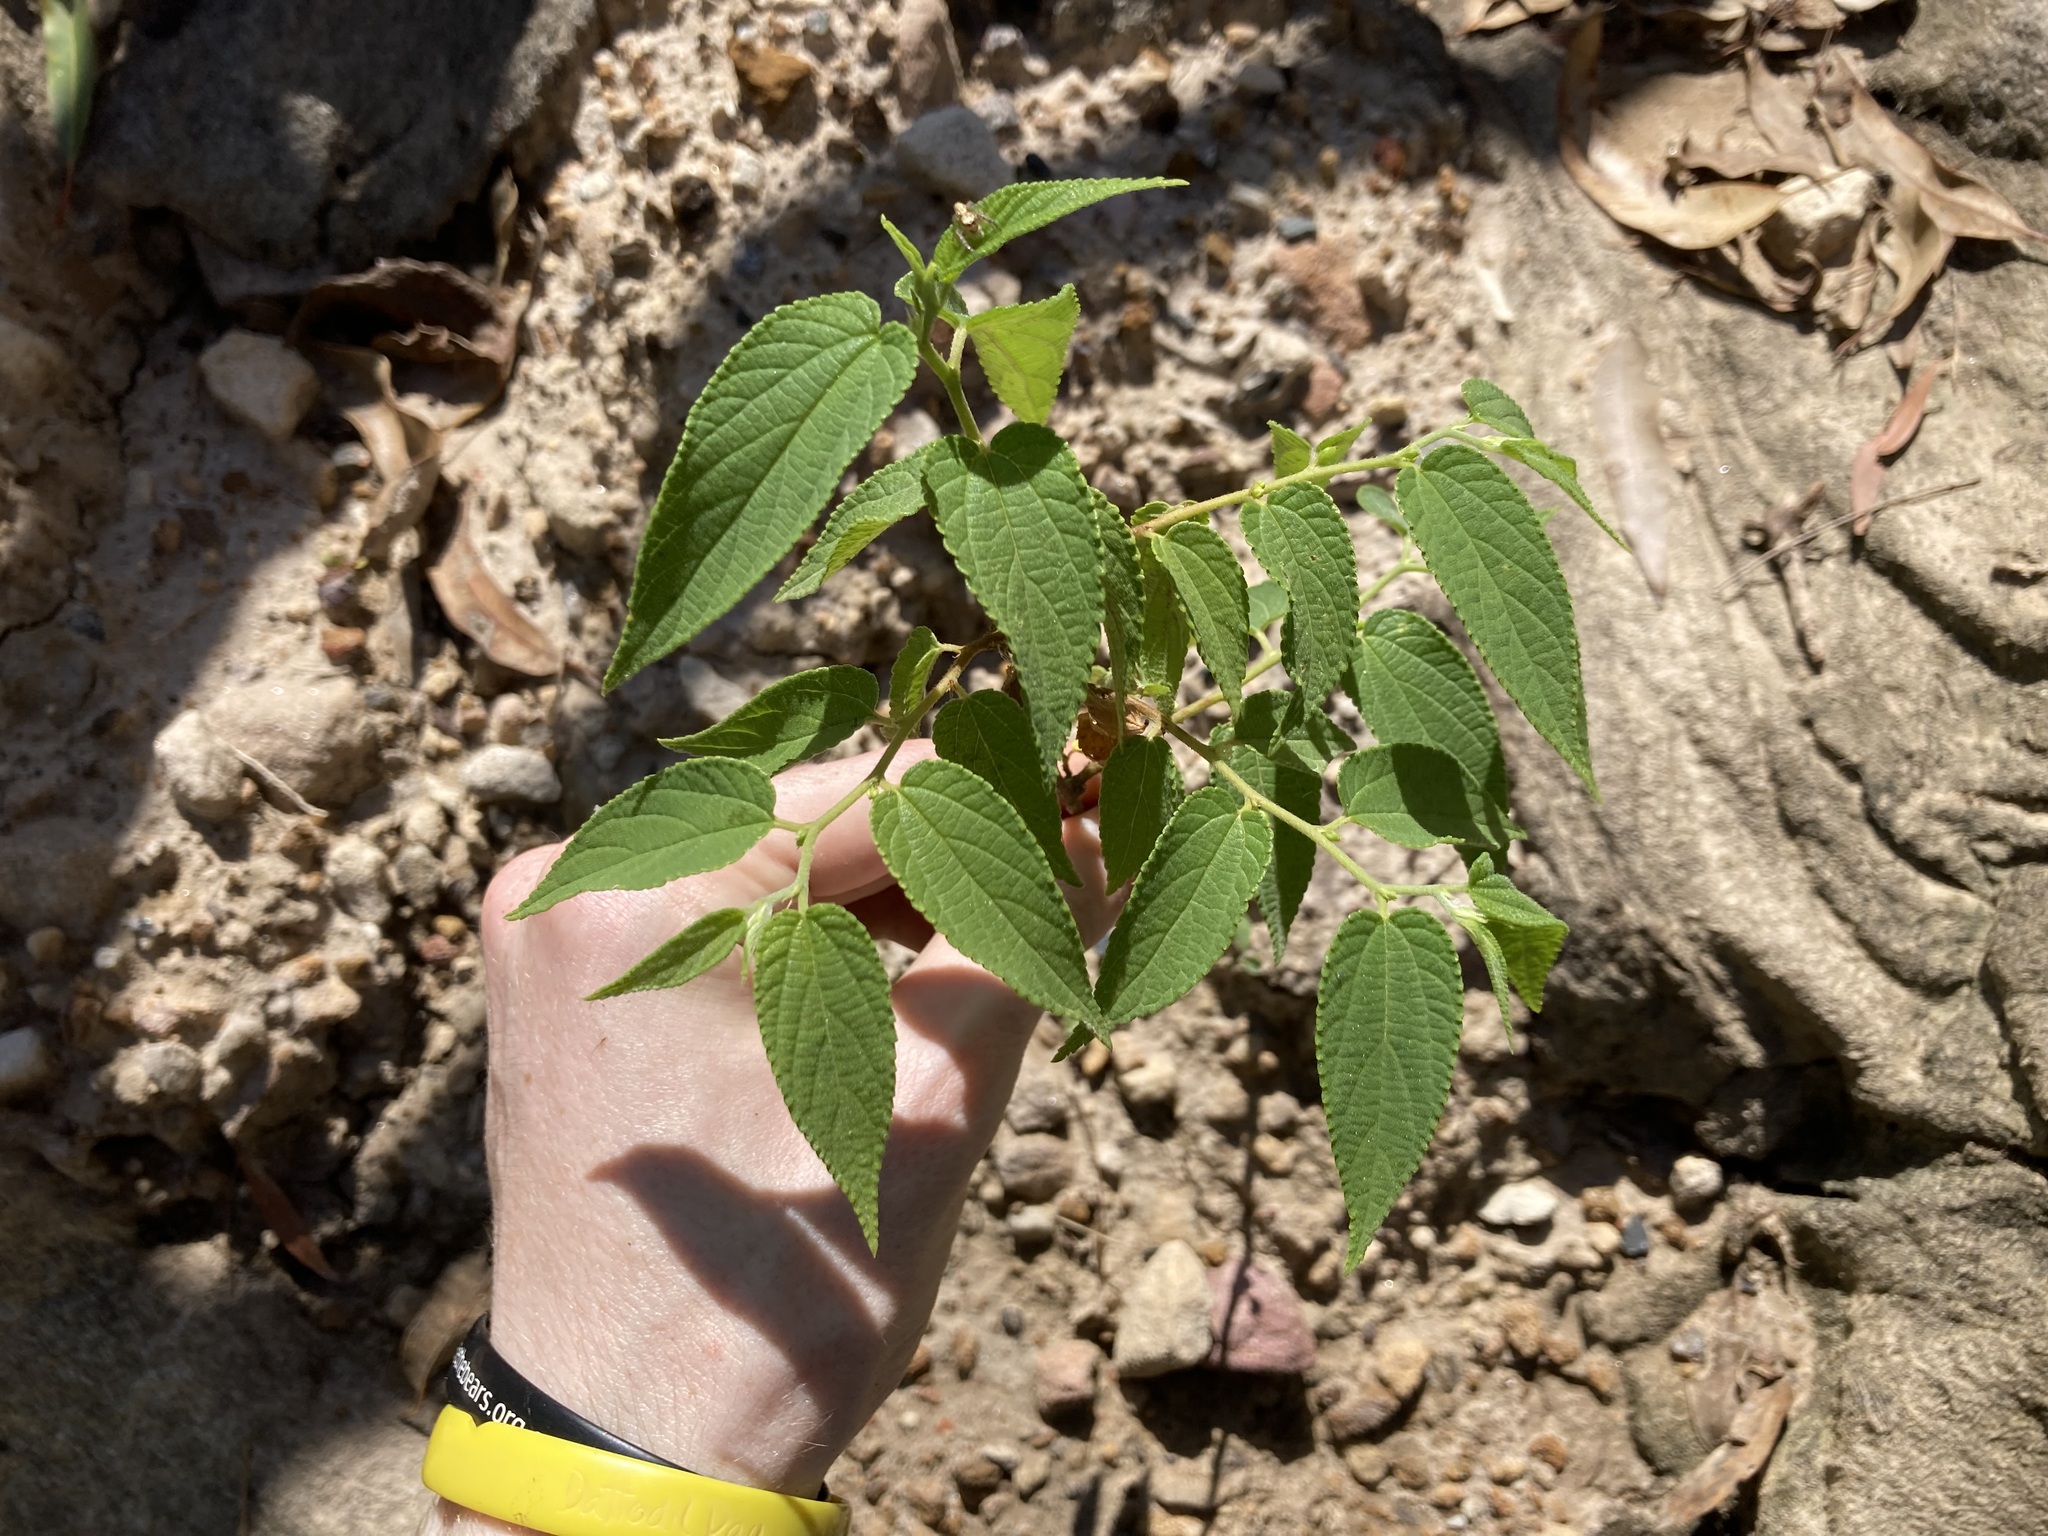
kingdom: Plantae
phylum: Tracheophyta
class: Magnoliopsida
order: Rosales
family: Cannabaceae
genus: Trema
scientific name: Trema tomentosum
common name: Peach-leaf-poisonbush
